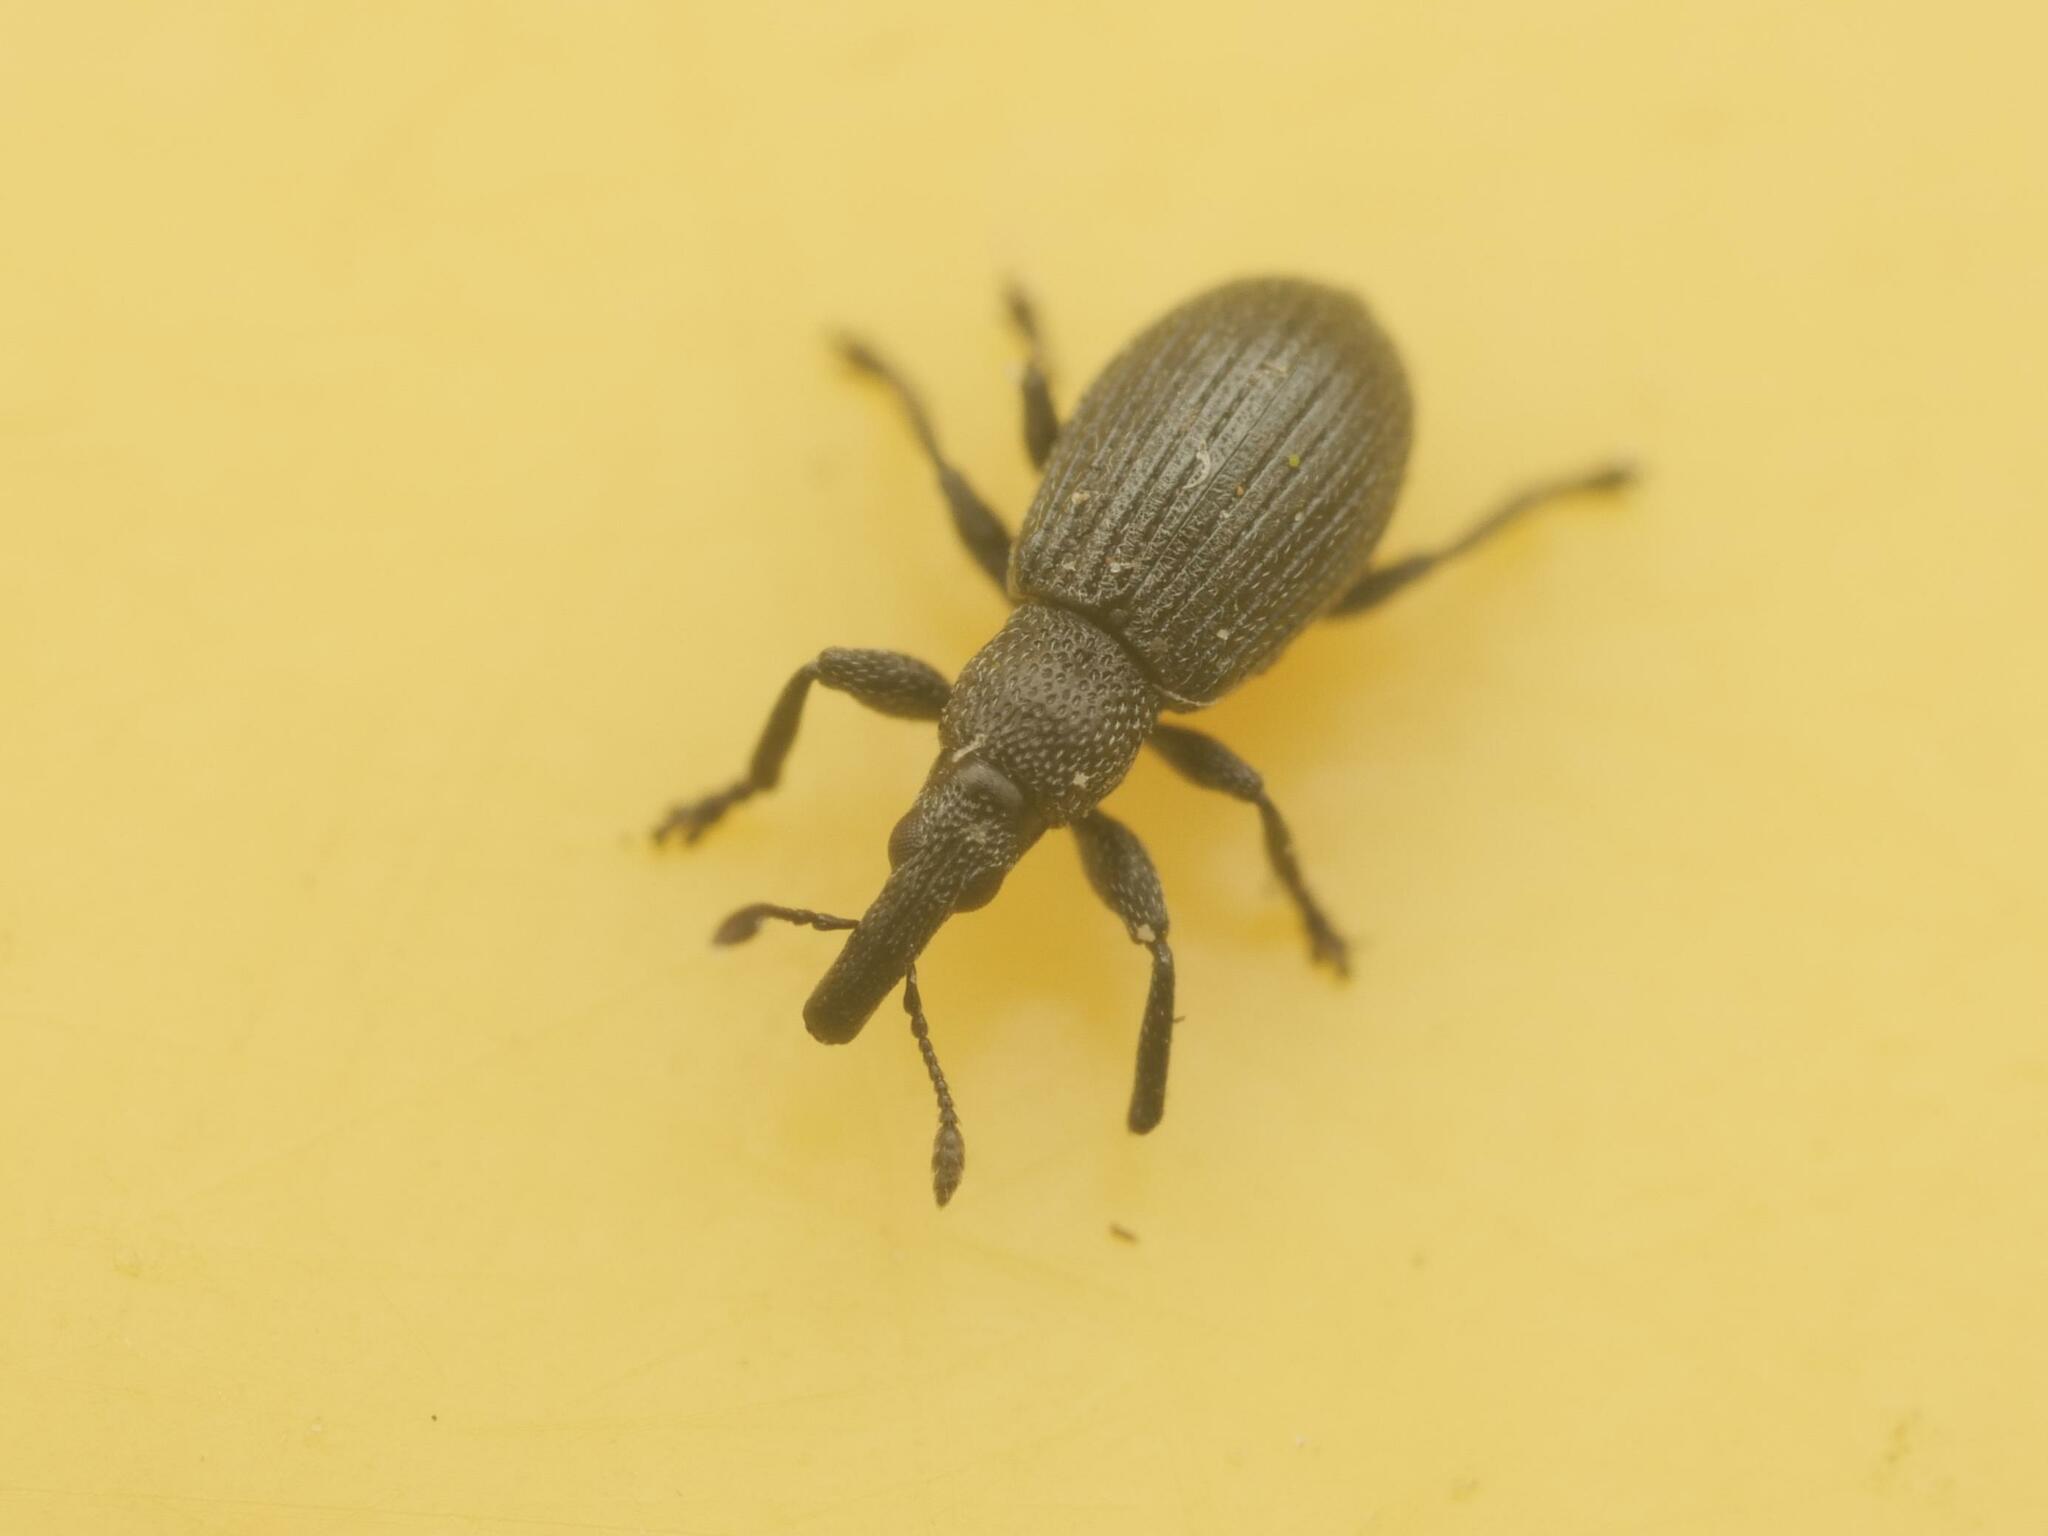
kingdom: Animalia
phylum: Arthropoda
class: Insecta
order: Coleoptera
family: Apionidae
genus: Aizobius
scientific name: Aizobius sedi
